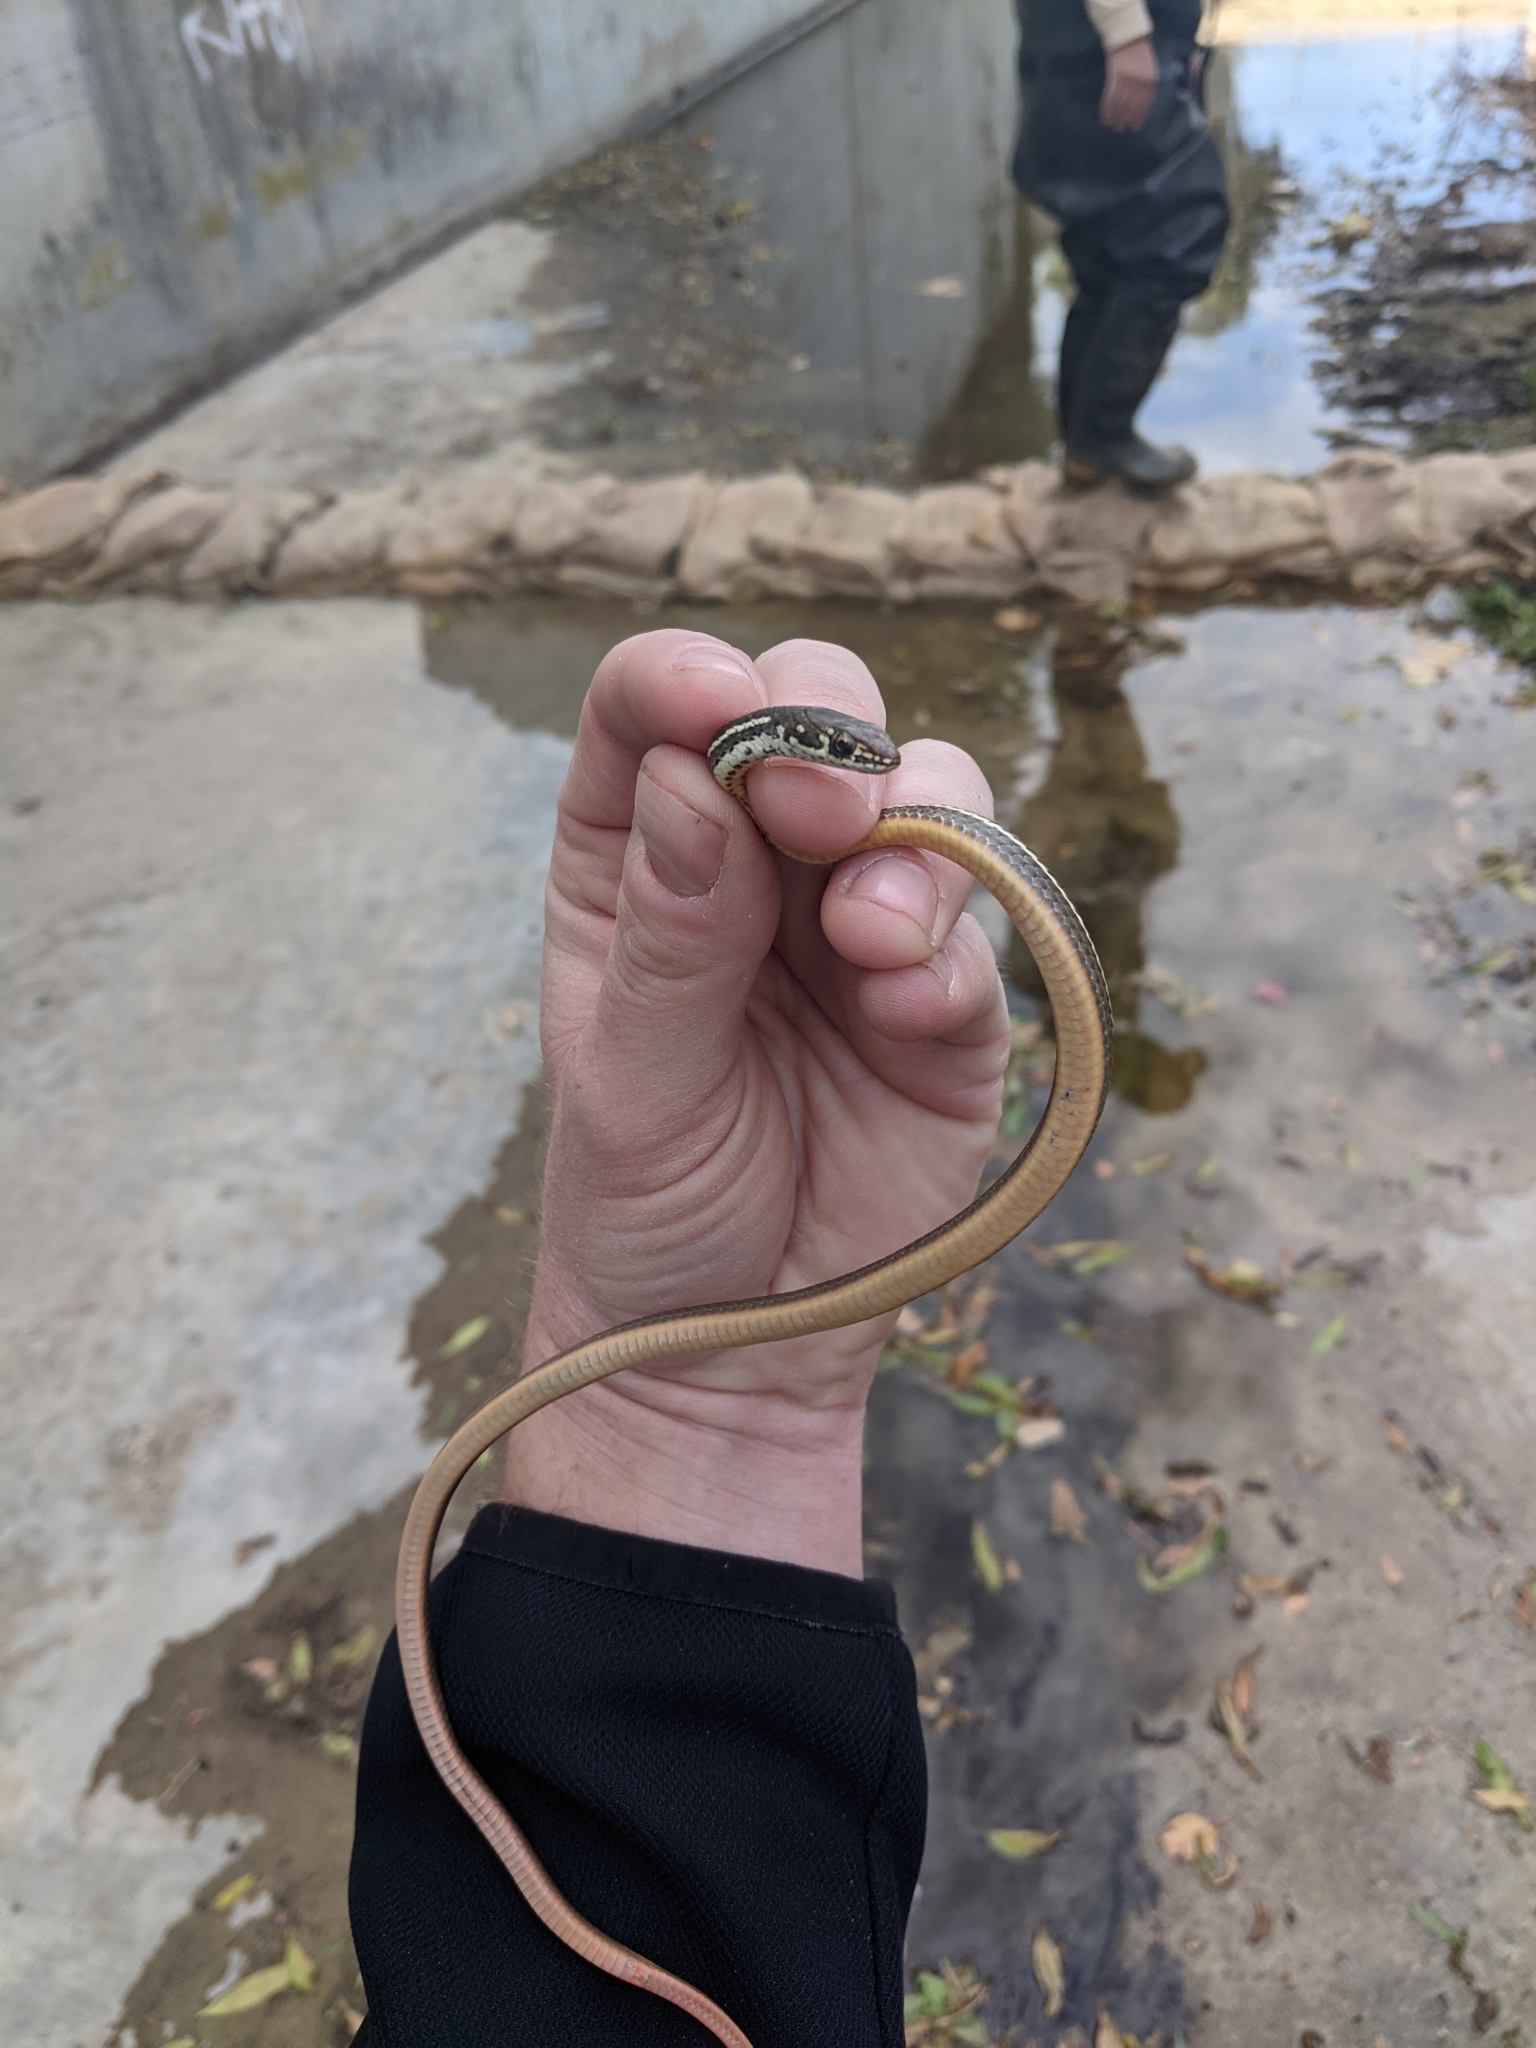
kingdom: Animalia
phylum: Chordata
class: Squamata
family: Colubridae
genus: Masticophis
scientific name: Masticophis lateralis
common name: Striped racer
